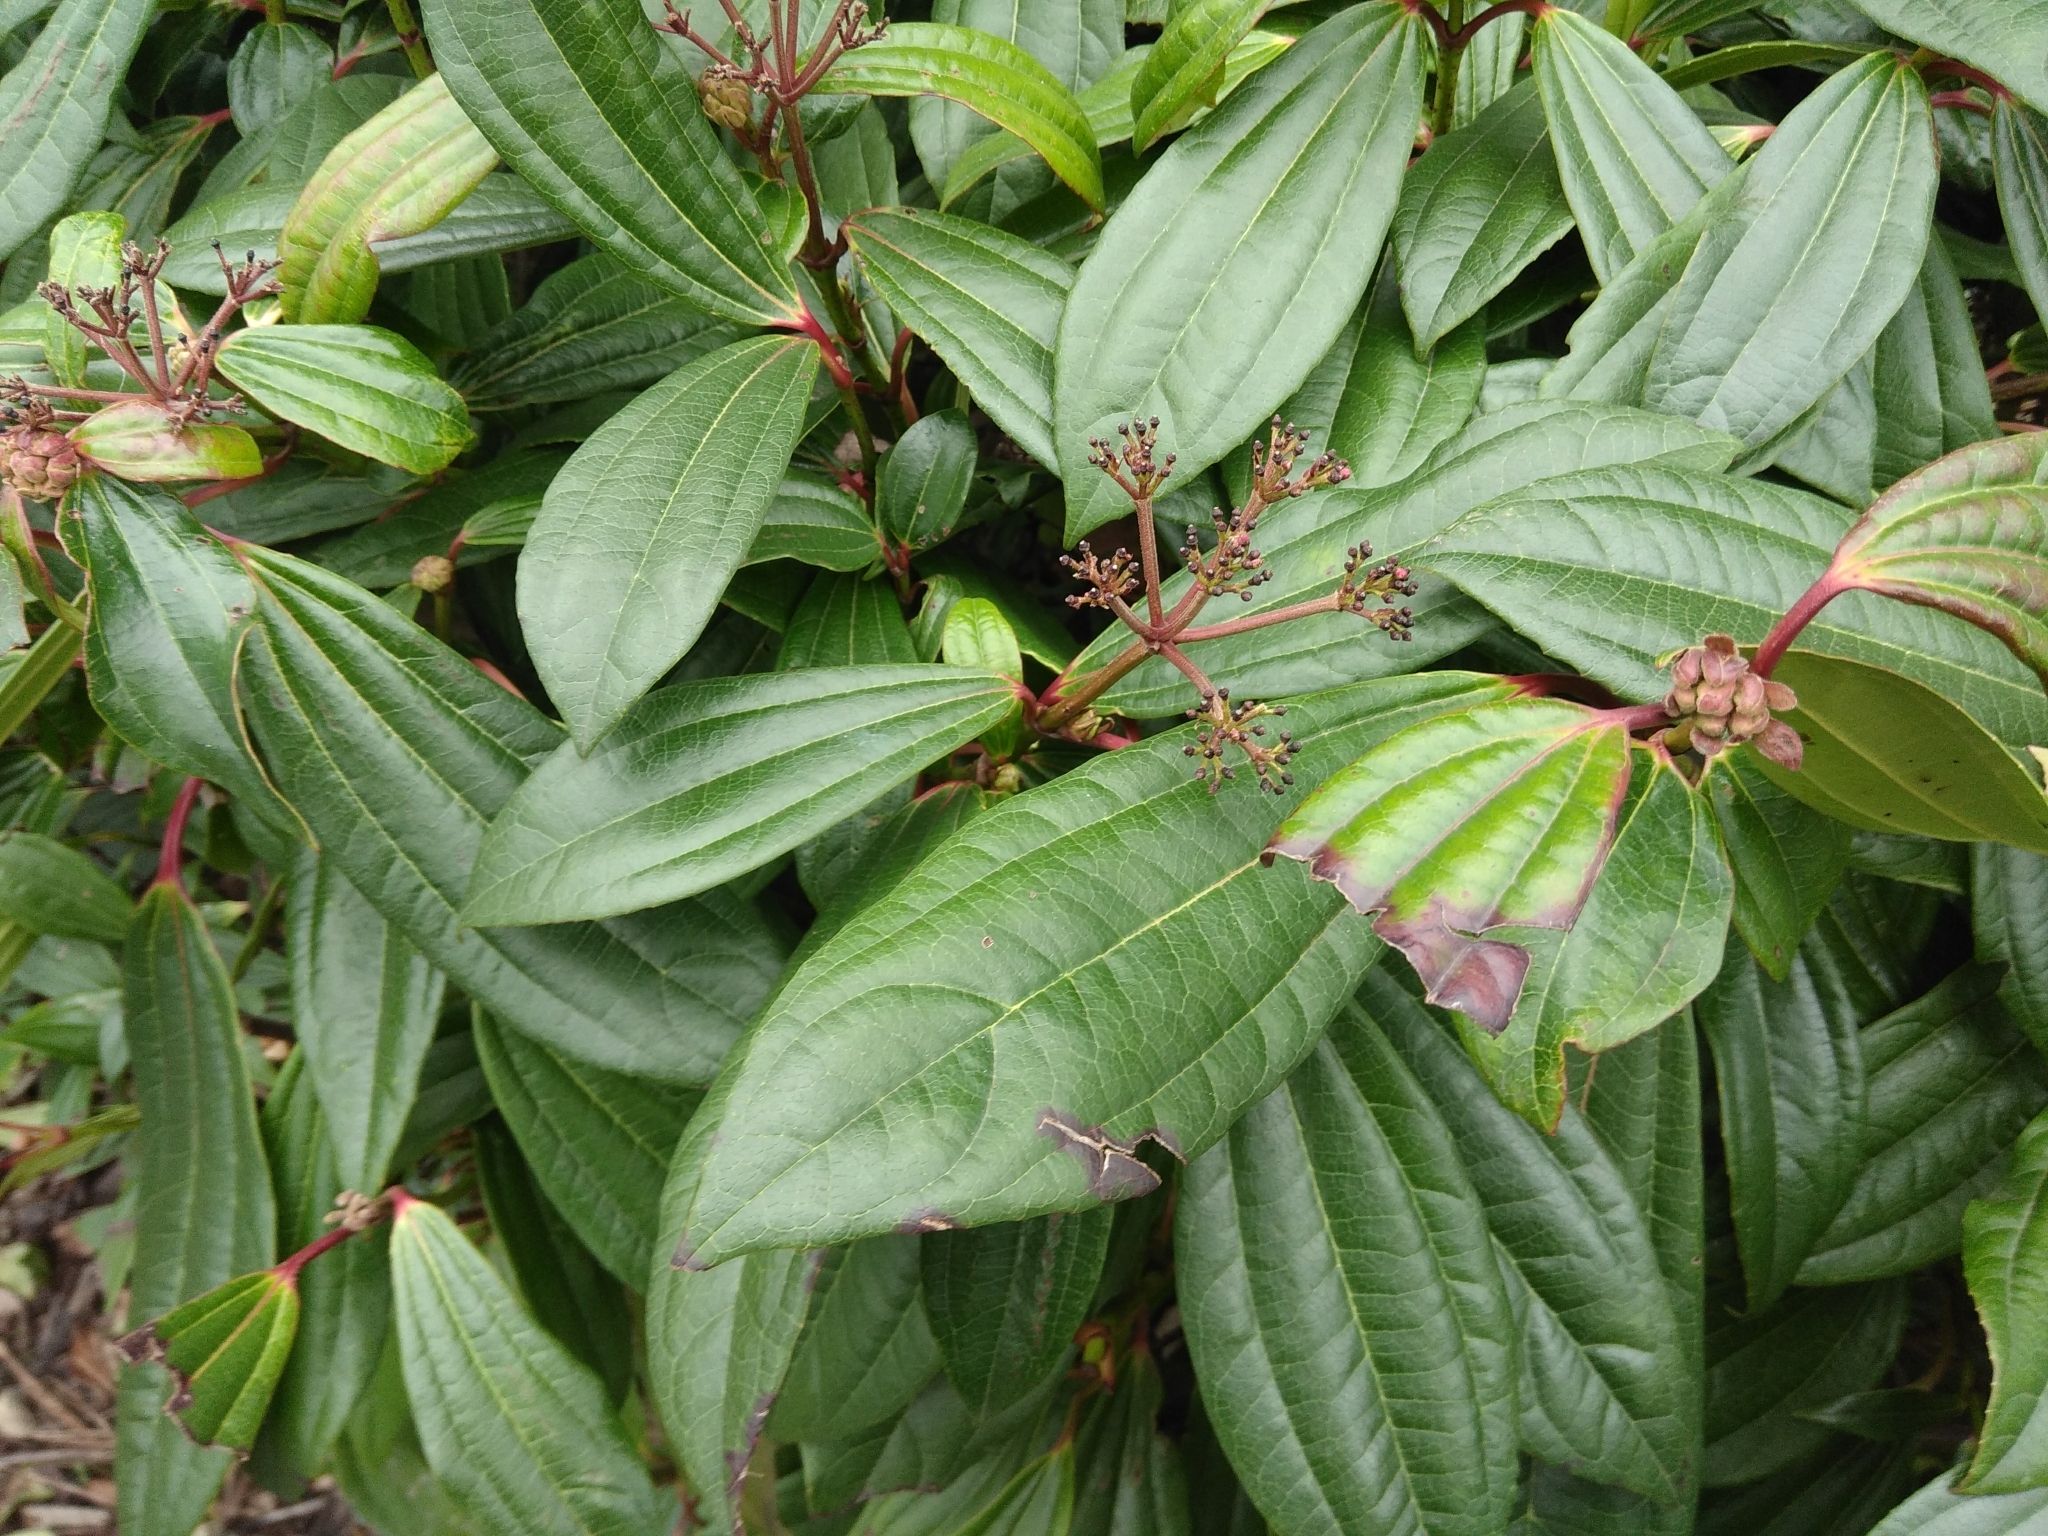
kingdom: Plantae
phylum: Tracheophyta
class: Magnoliopsida
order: Dipsacales
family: Viburnaceae
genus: Viburnum
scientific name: Viburnum davidi
